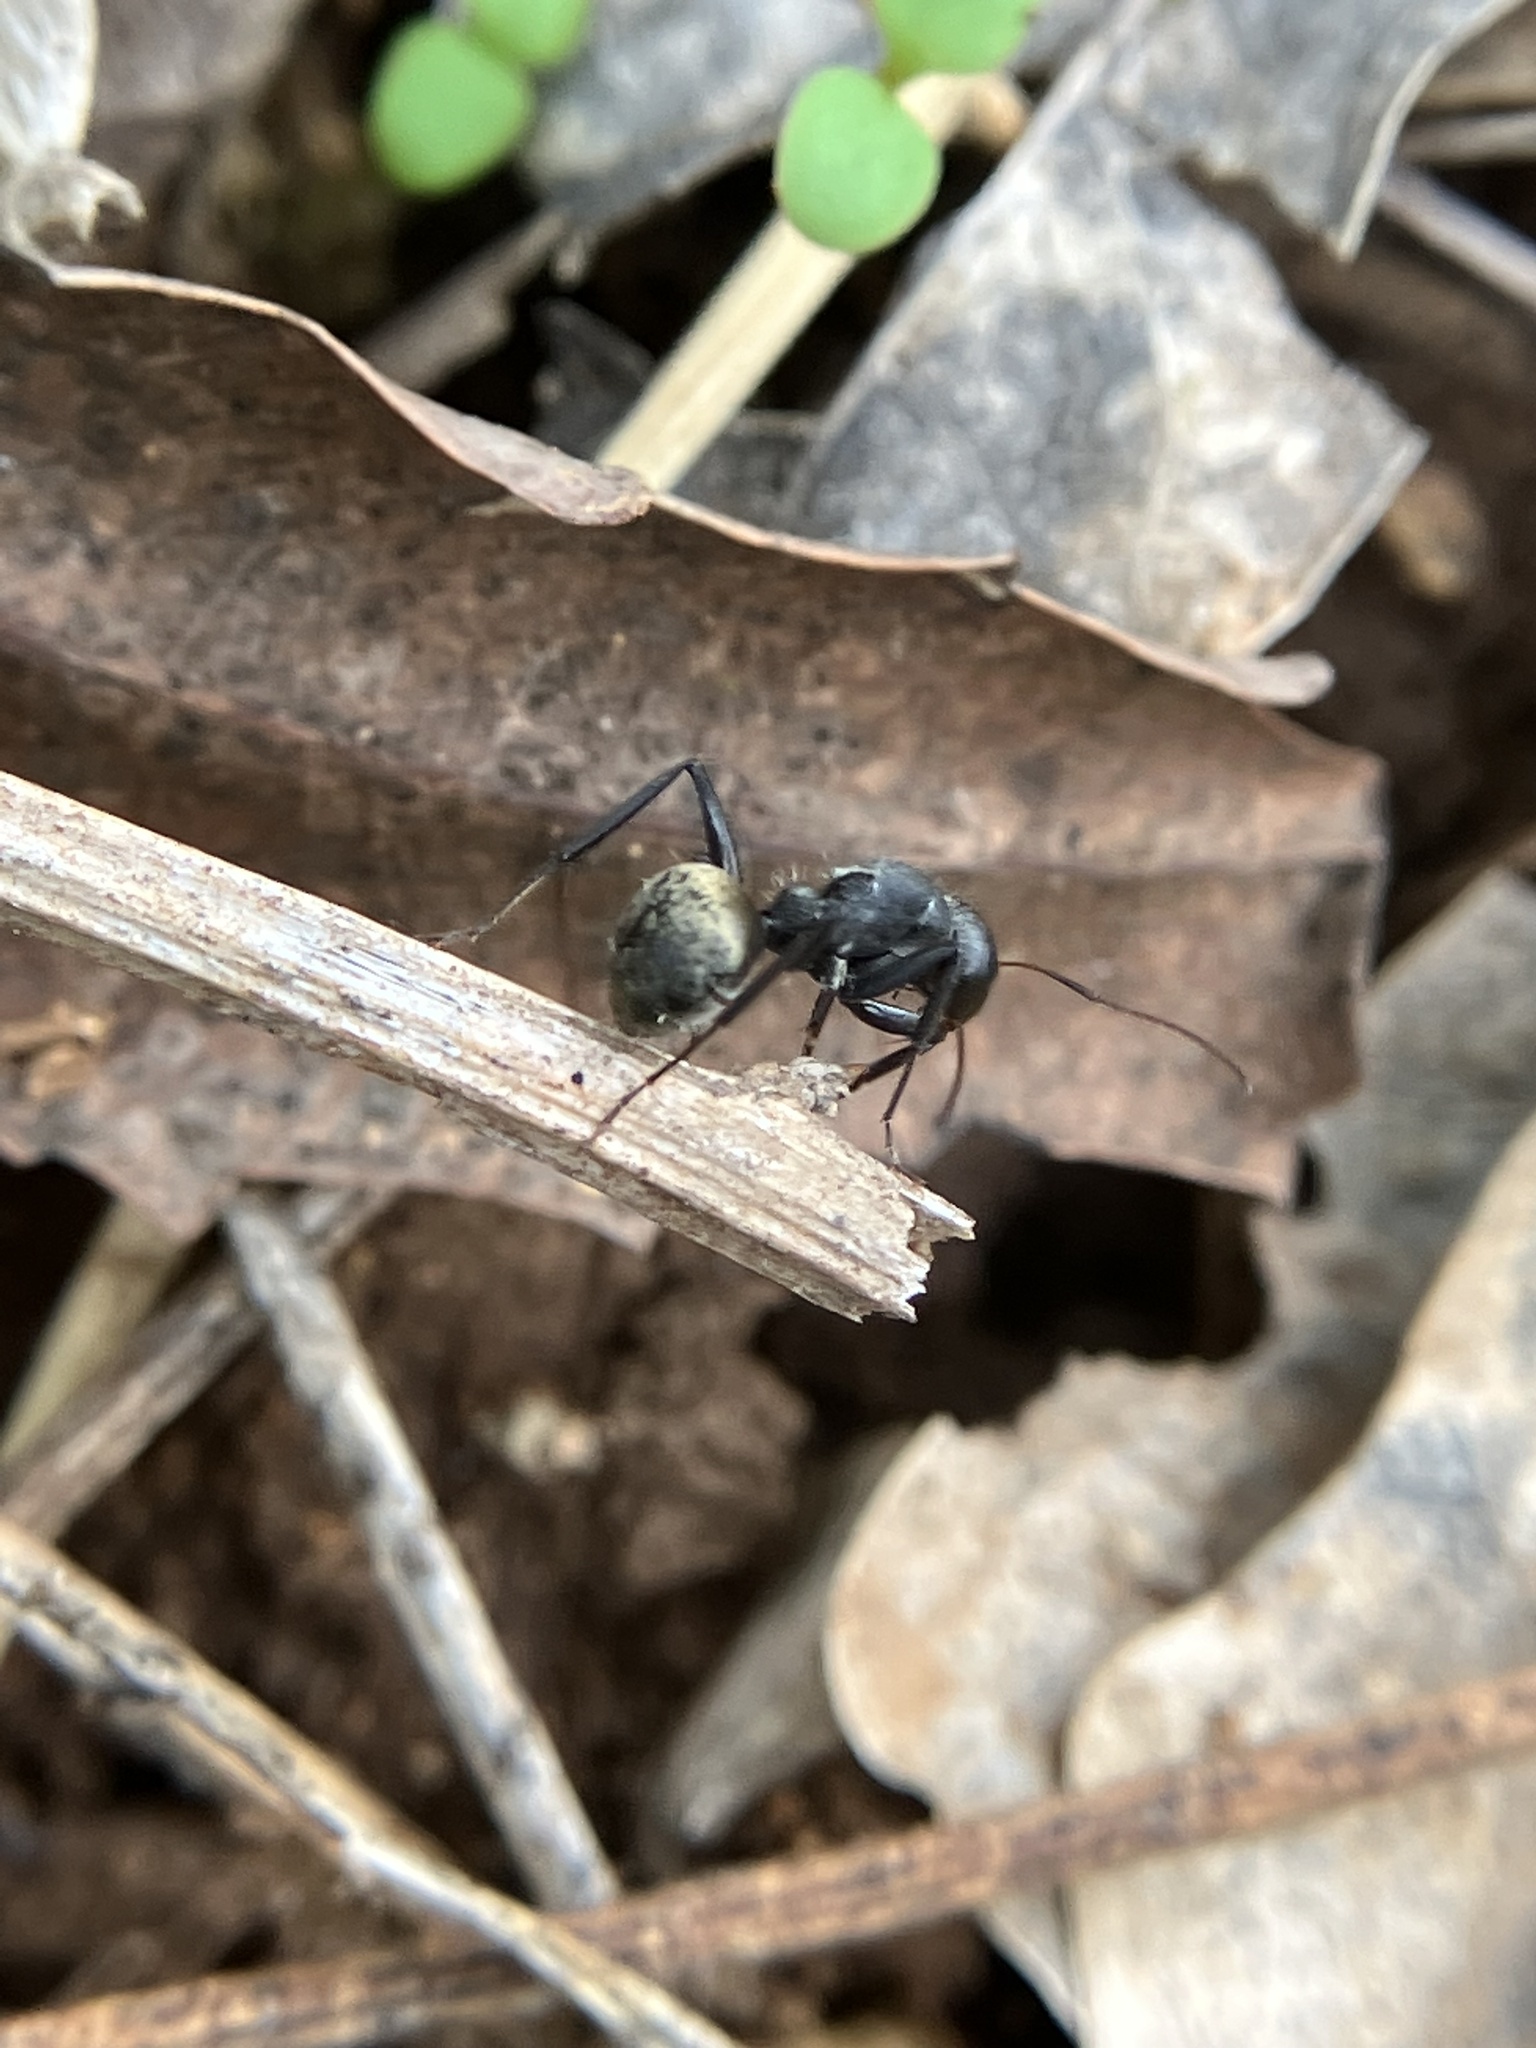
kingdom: Animalia
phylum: Arthropoda
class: Insecta
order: Hymenoptera
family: Formicidae
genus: Camponotus
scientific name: Camponotus sericeus
